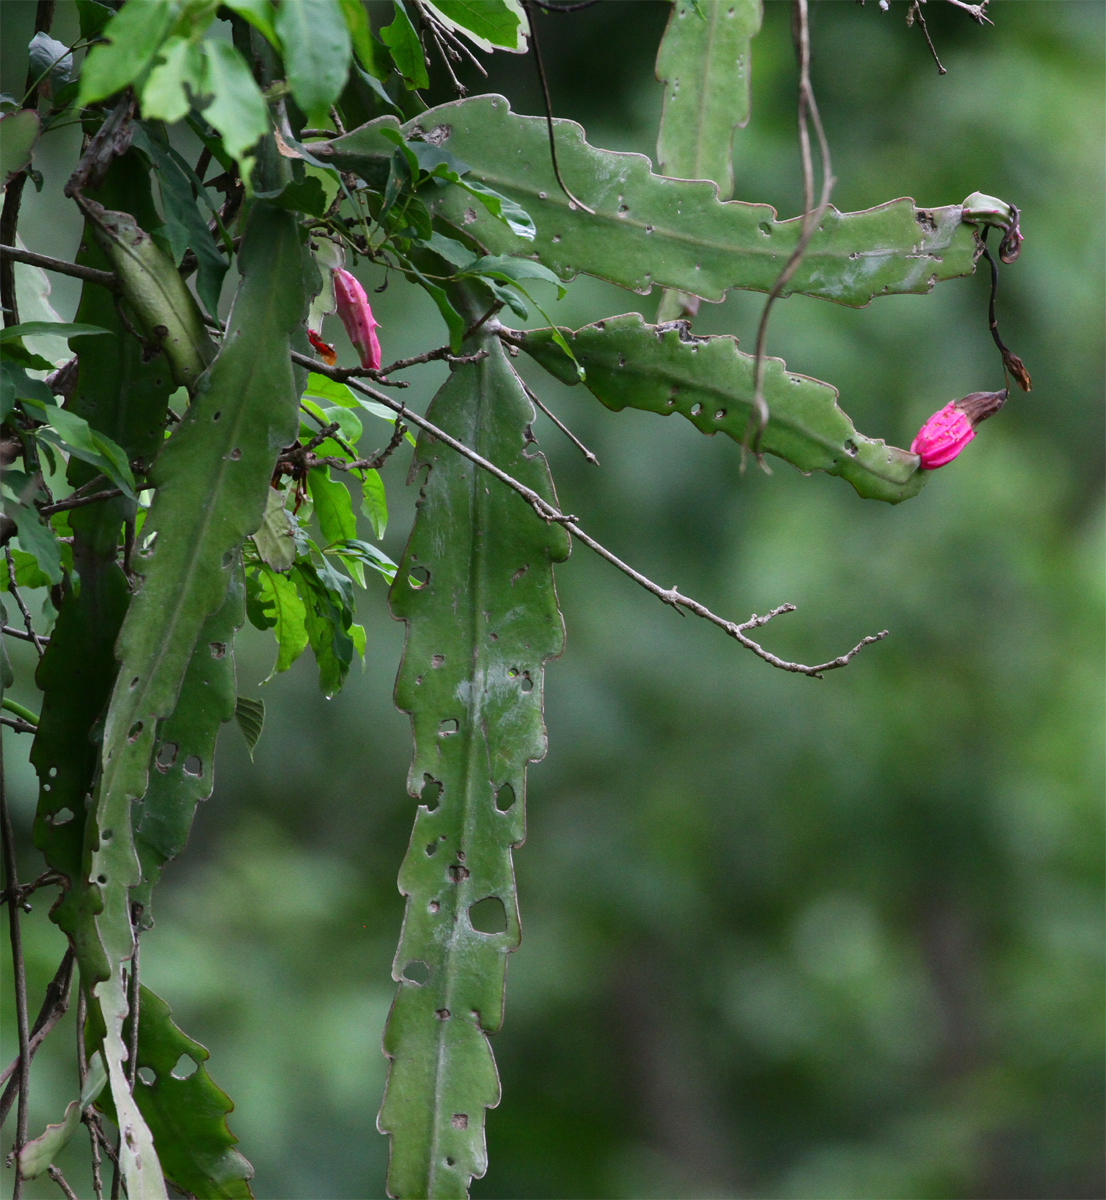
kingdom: Plantae
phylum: Tracheophyta
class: Magnoliopsida
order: Caryophyllales
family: Cactaceae
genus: Epiphyllum
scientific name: Epiphyllum phyllanthus
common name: Climbing cactus
